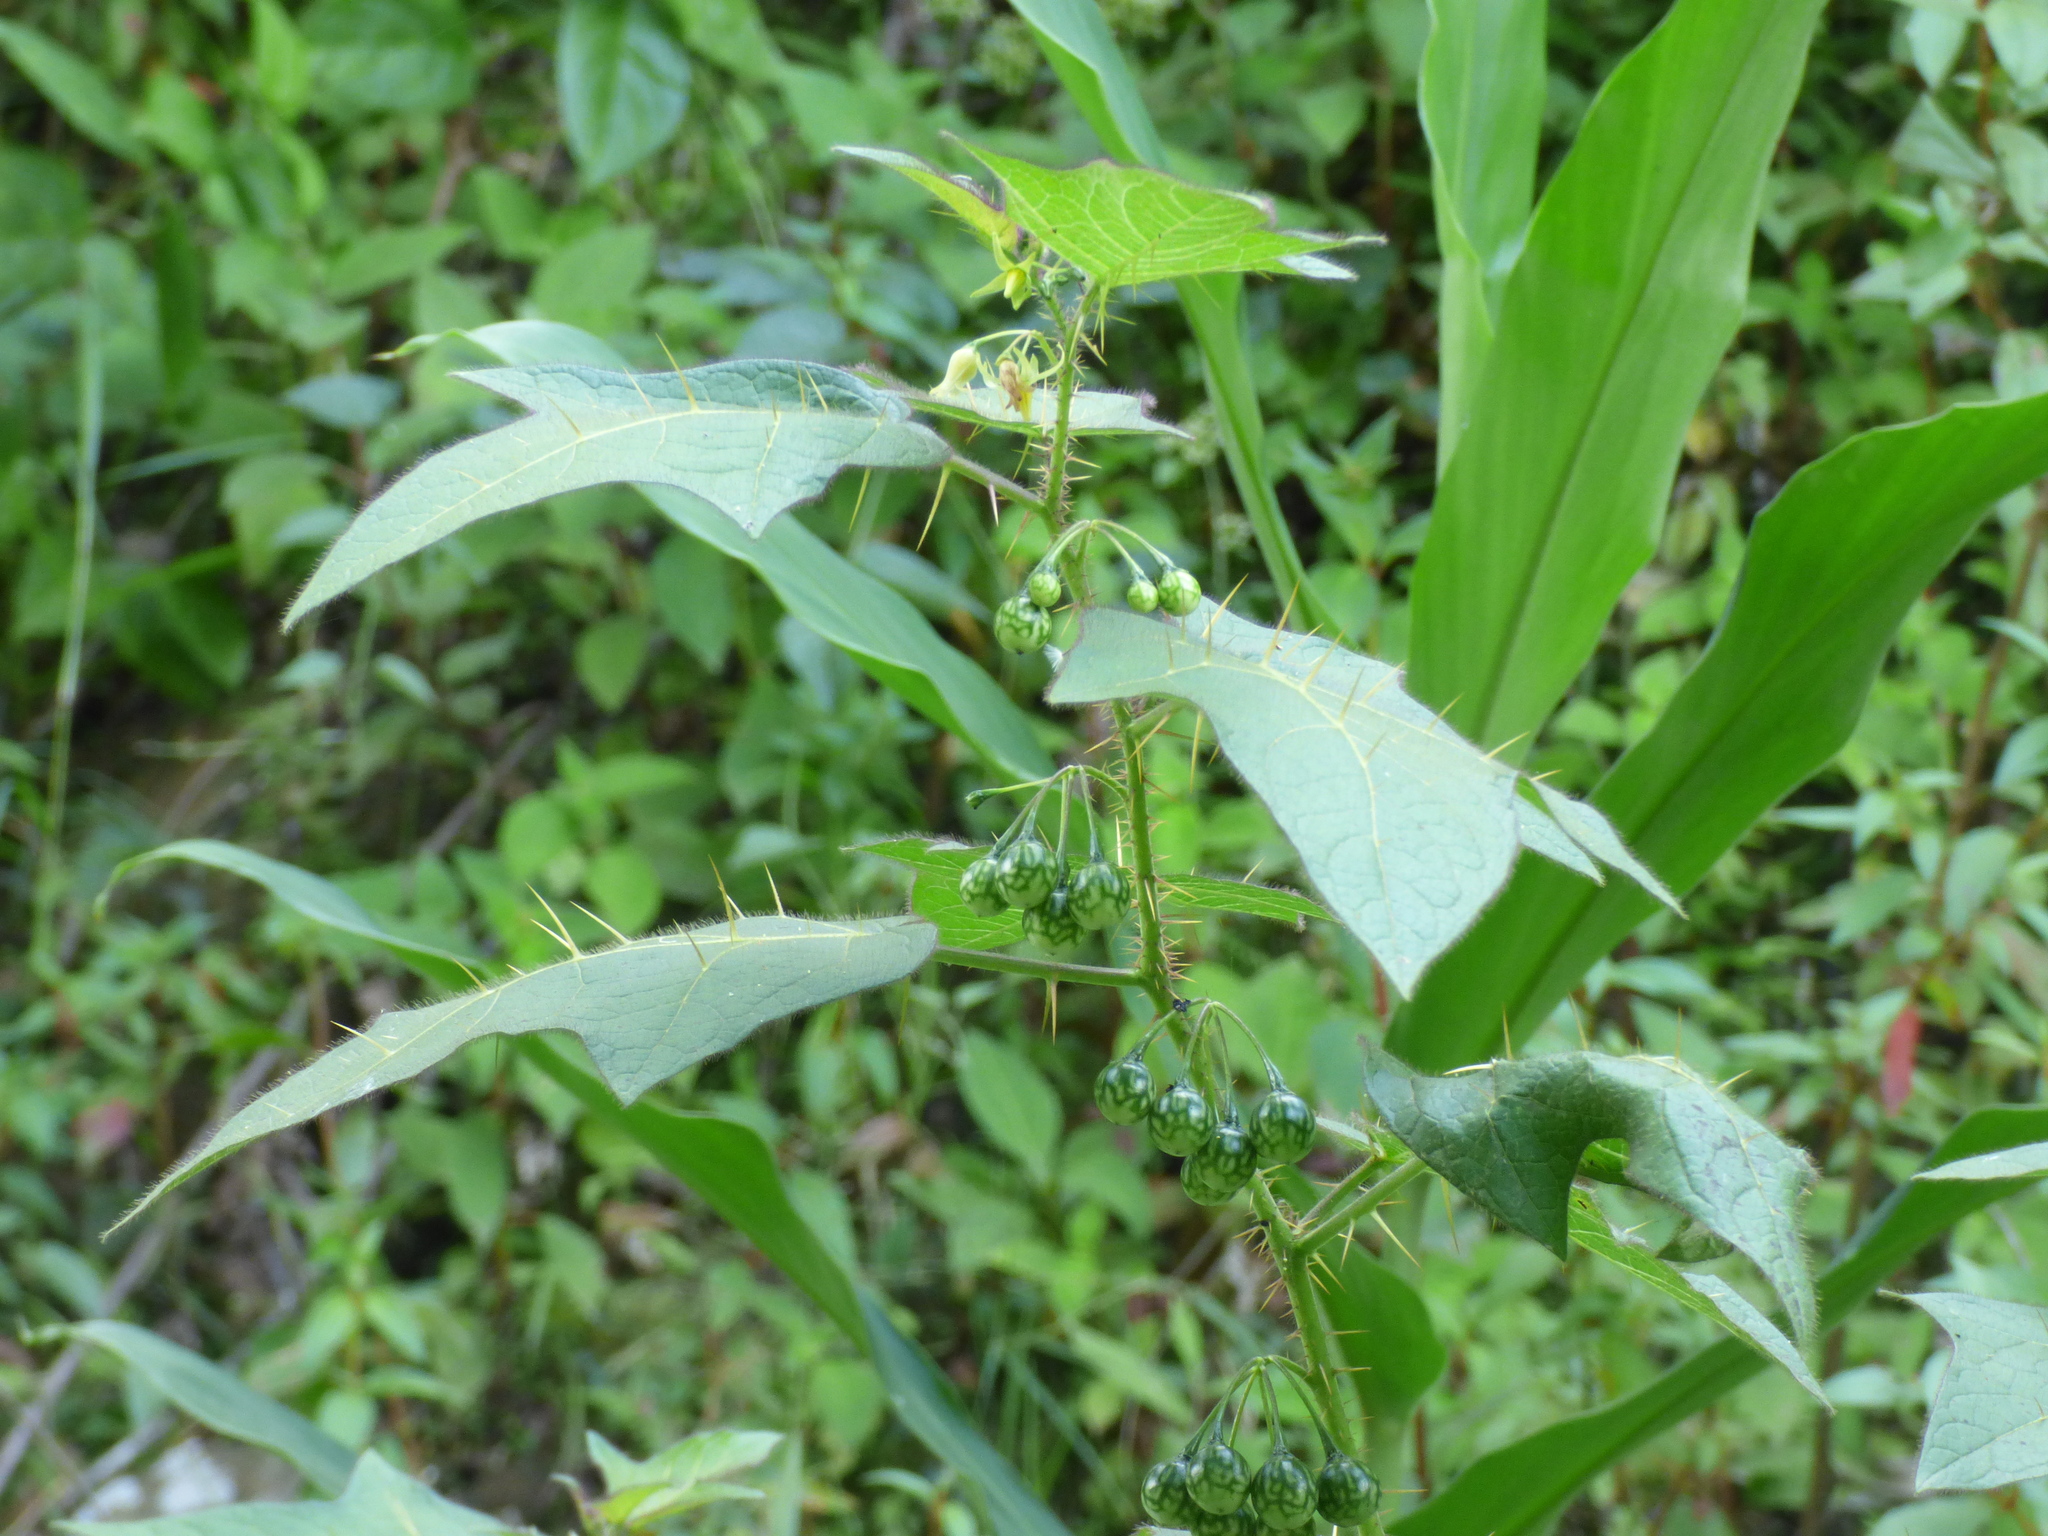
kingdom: Plantae
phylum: Tracheophyta
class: Magnoliopsida
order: Solanales
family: Solanaceae
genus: Solanum
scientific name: Solanum acerifolium
